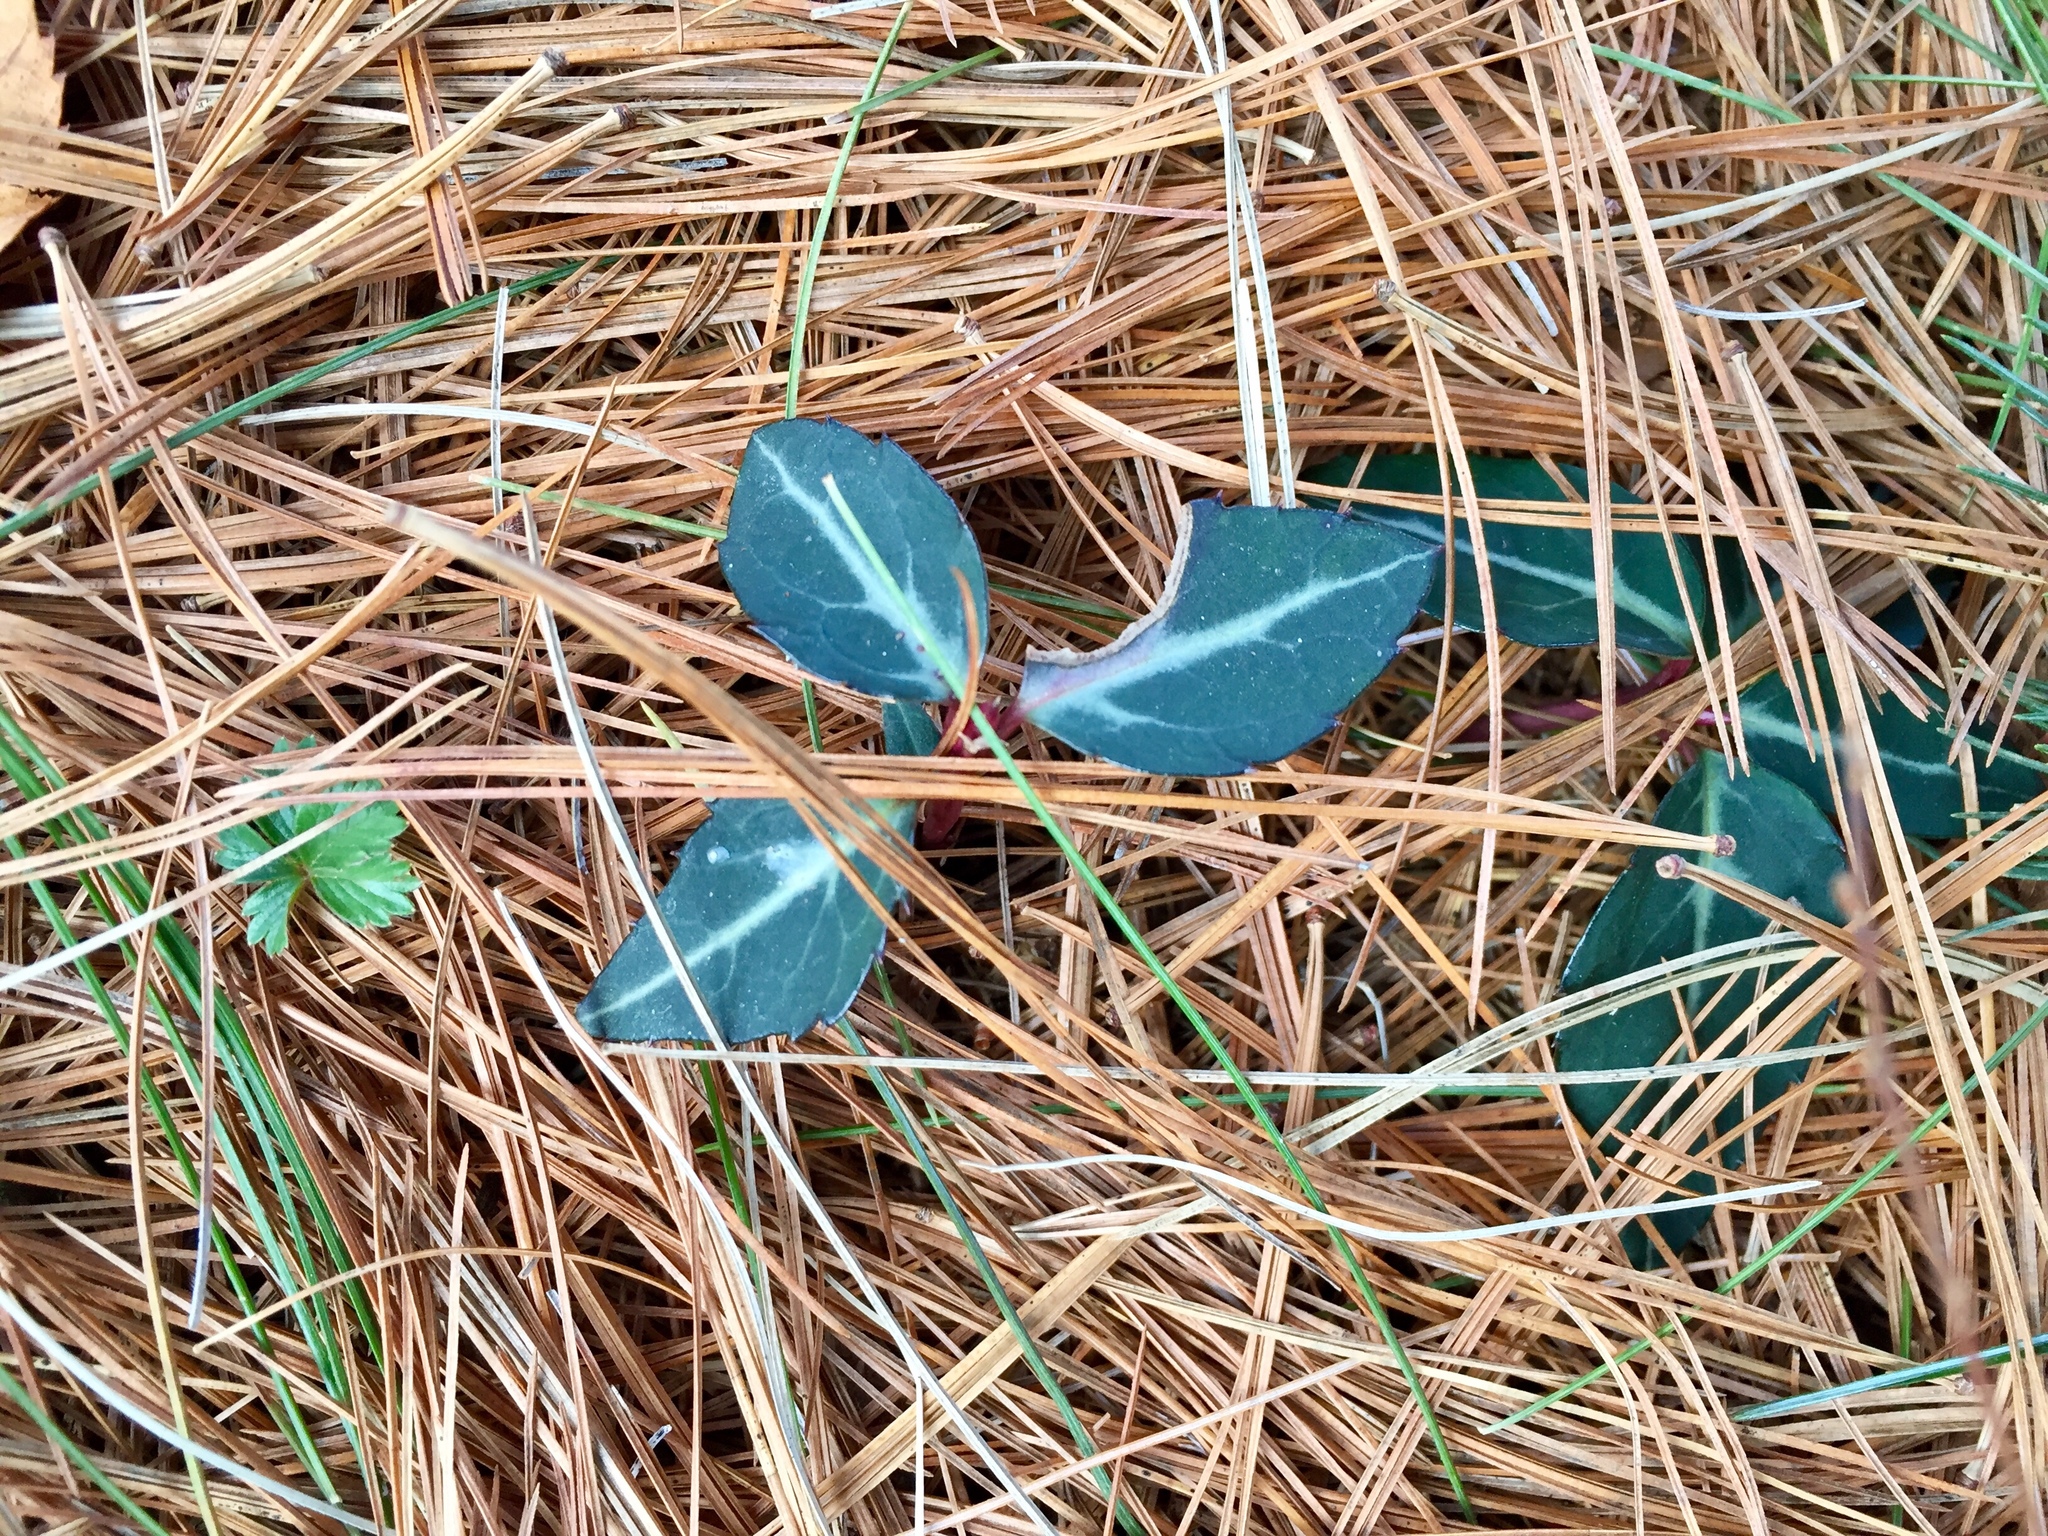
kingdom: Plantae
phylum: Tracheophyta
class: Magnoliopsida
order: Ericales
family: Ericaceae
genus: Chimaphila
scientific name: Chimaphila maculata
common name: Spotted pipsissewa
